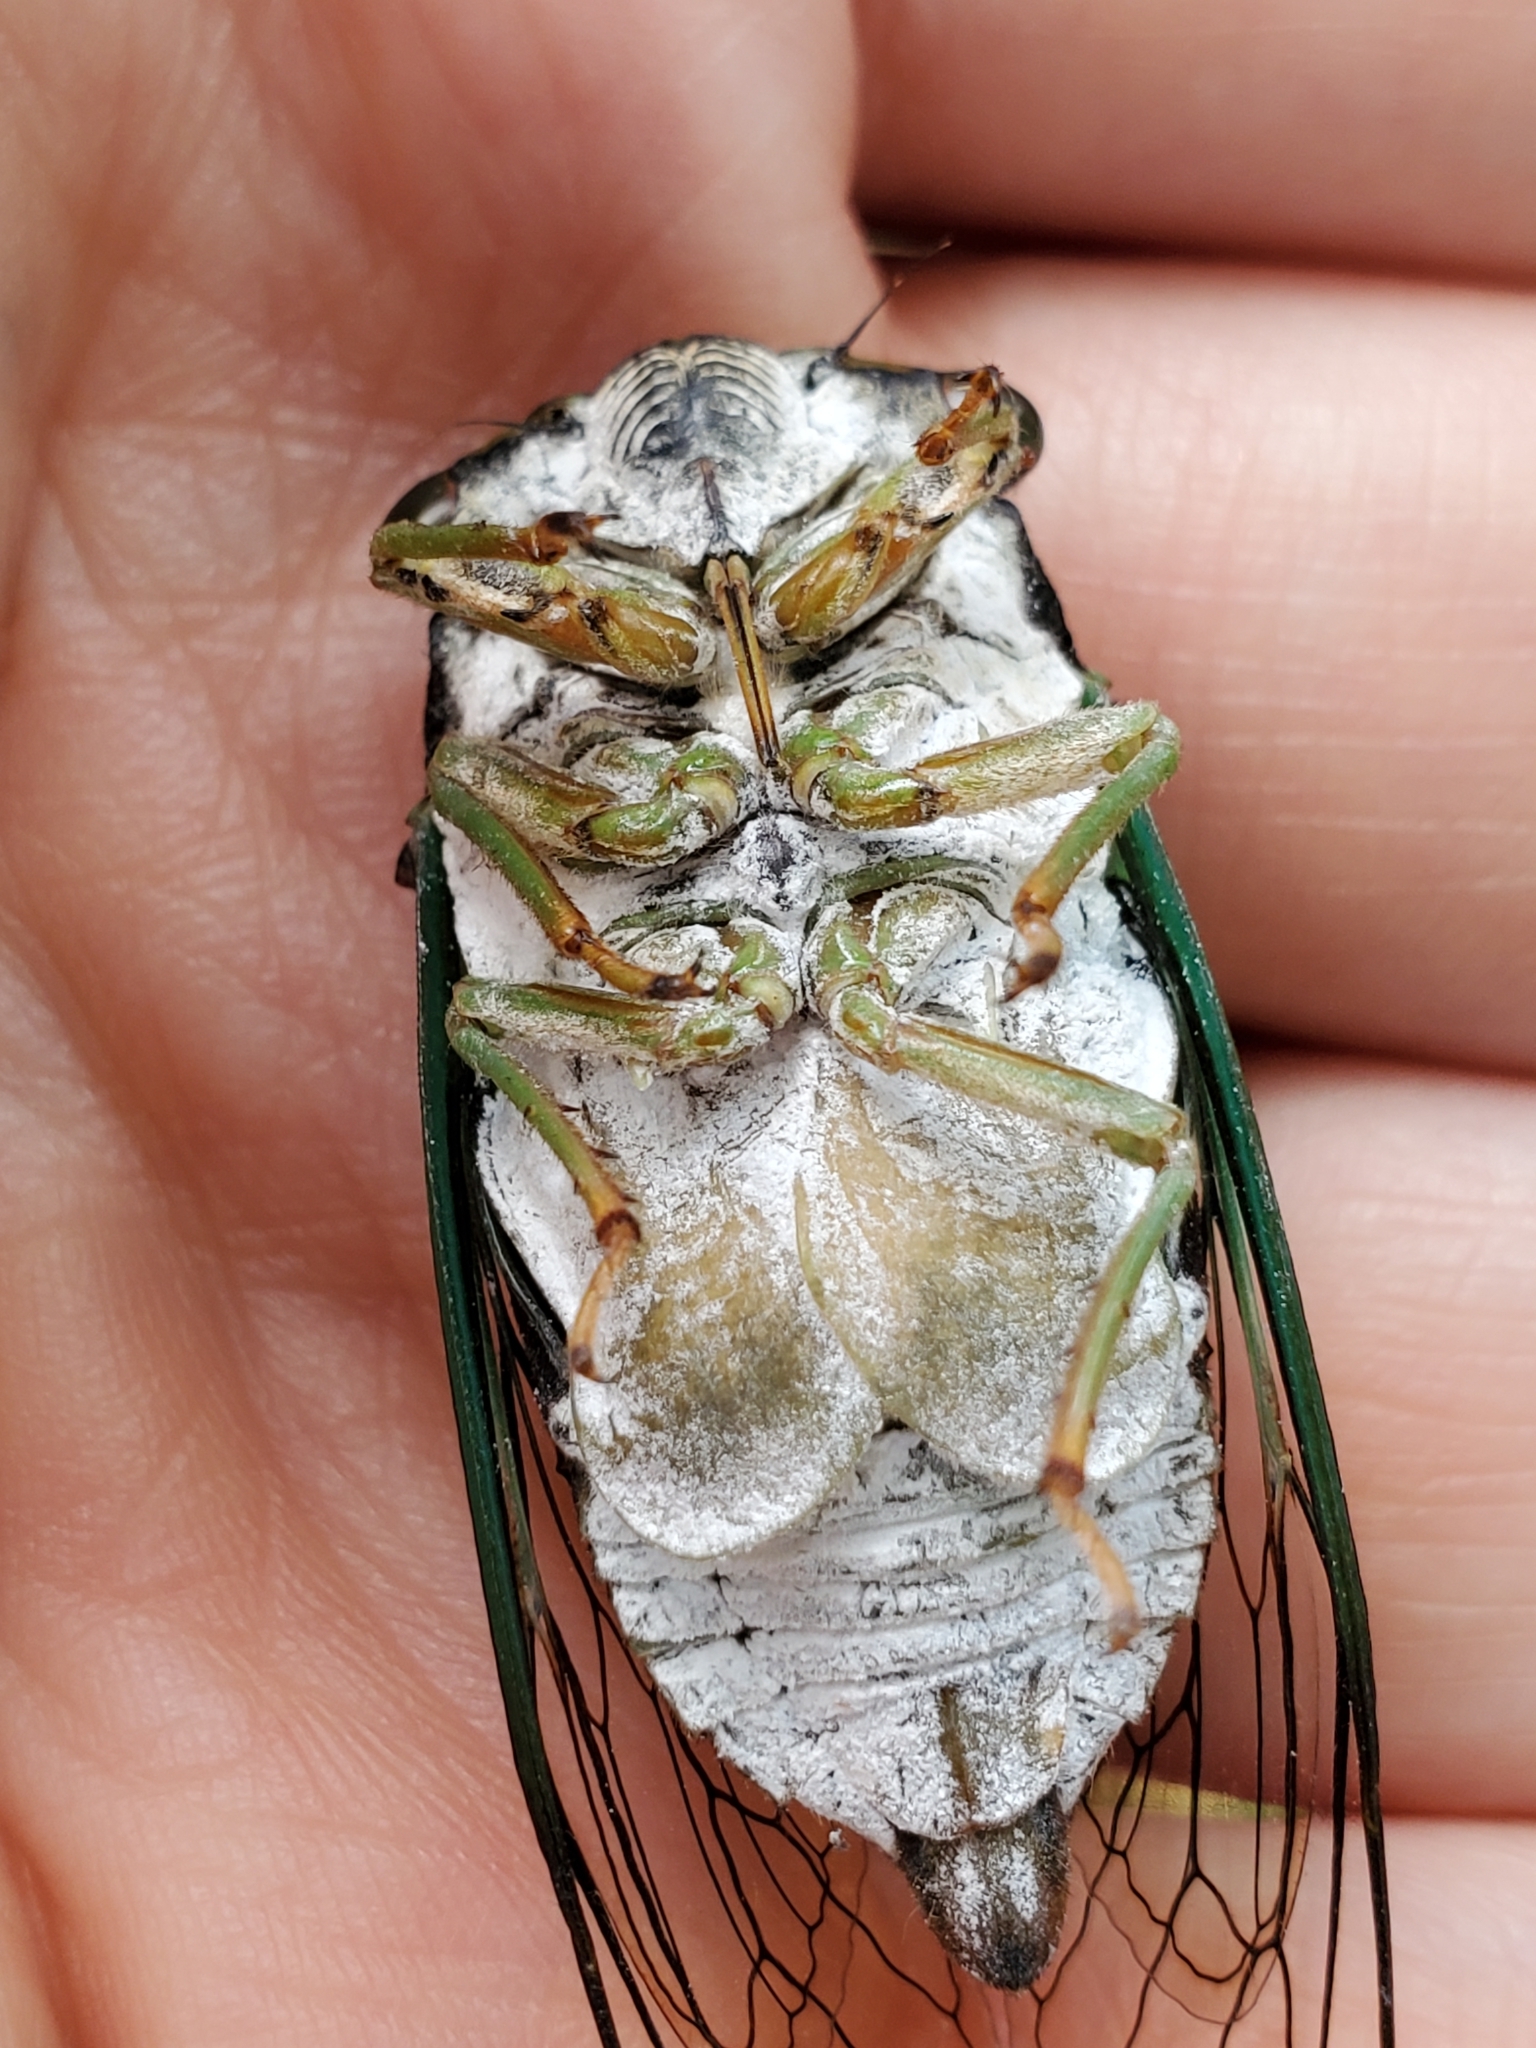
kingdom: Animalia
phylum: Arthropoda
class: Insecta
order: Hemiptera
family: Cicadidae
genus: Neotibicen
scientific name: Neotibicen tibicen
